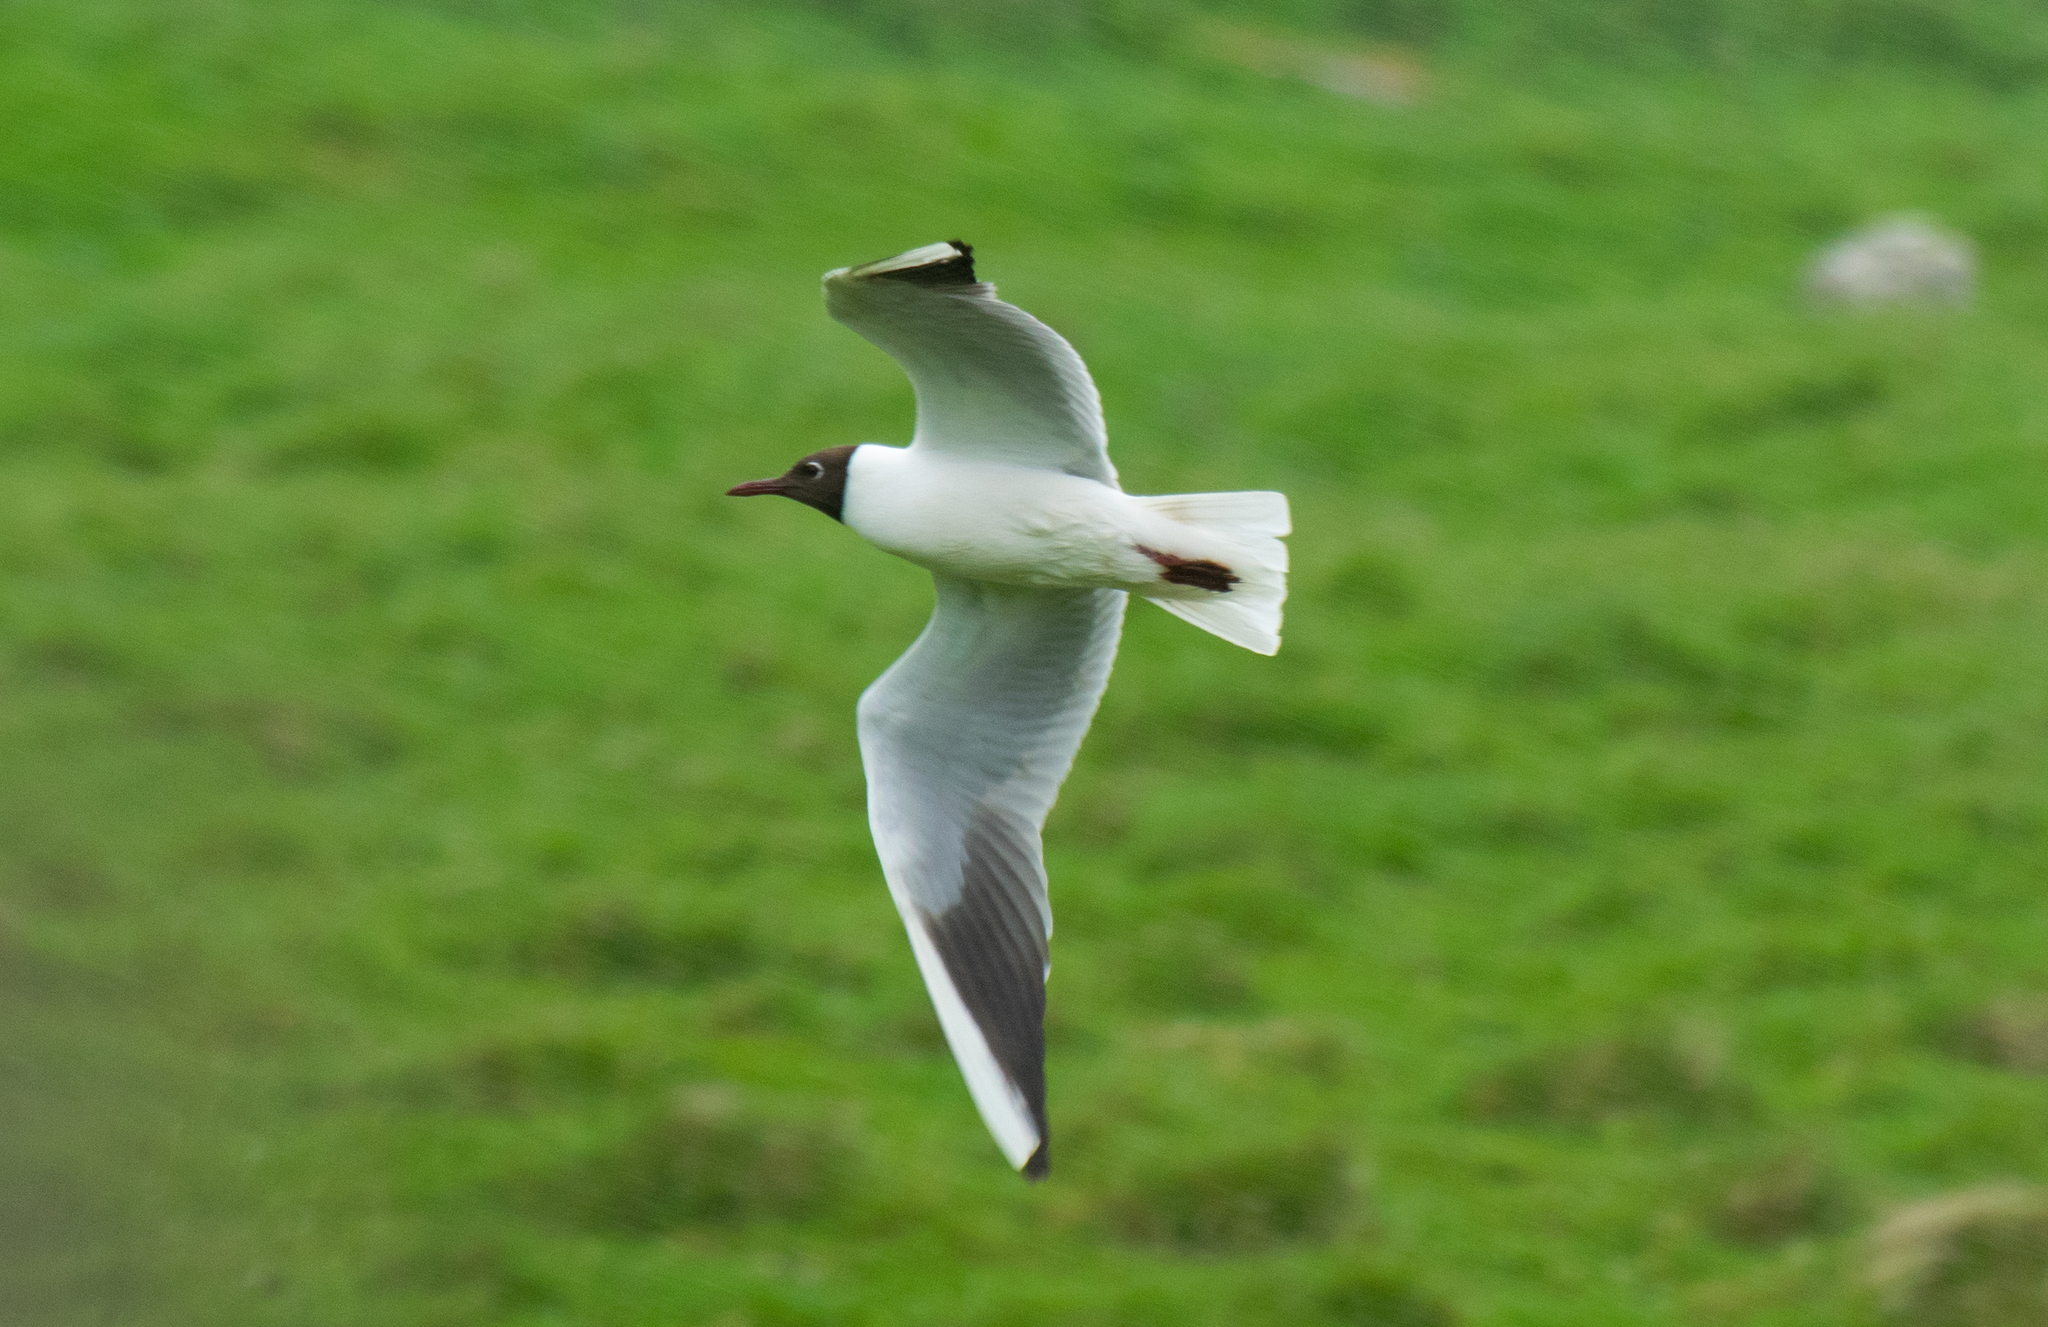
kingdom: Animalia
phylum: Chordata
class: Aves
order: Charadriiformes
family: Laridae
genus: Chroicocephalus
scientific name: Chroicocephalus ridibundus
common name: Black-headed gull
